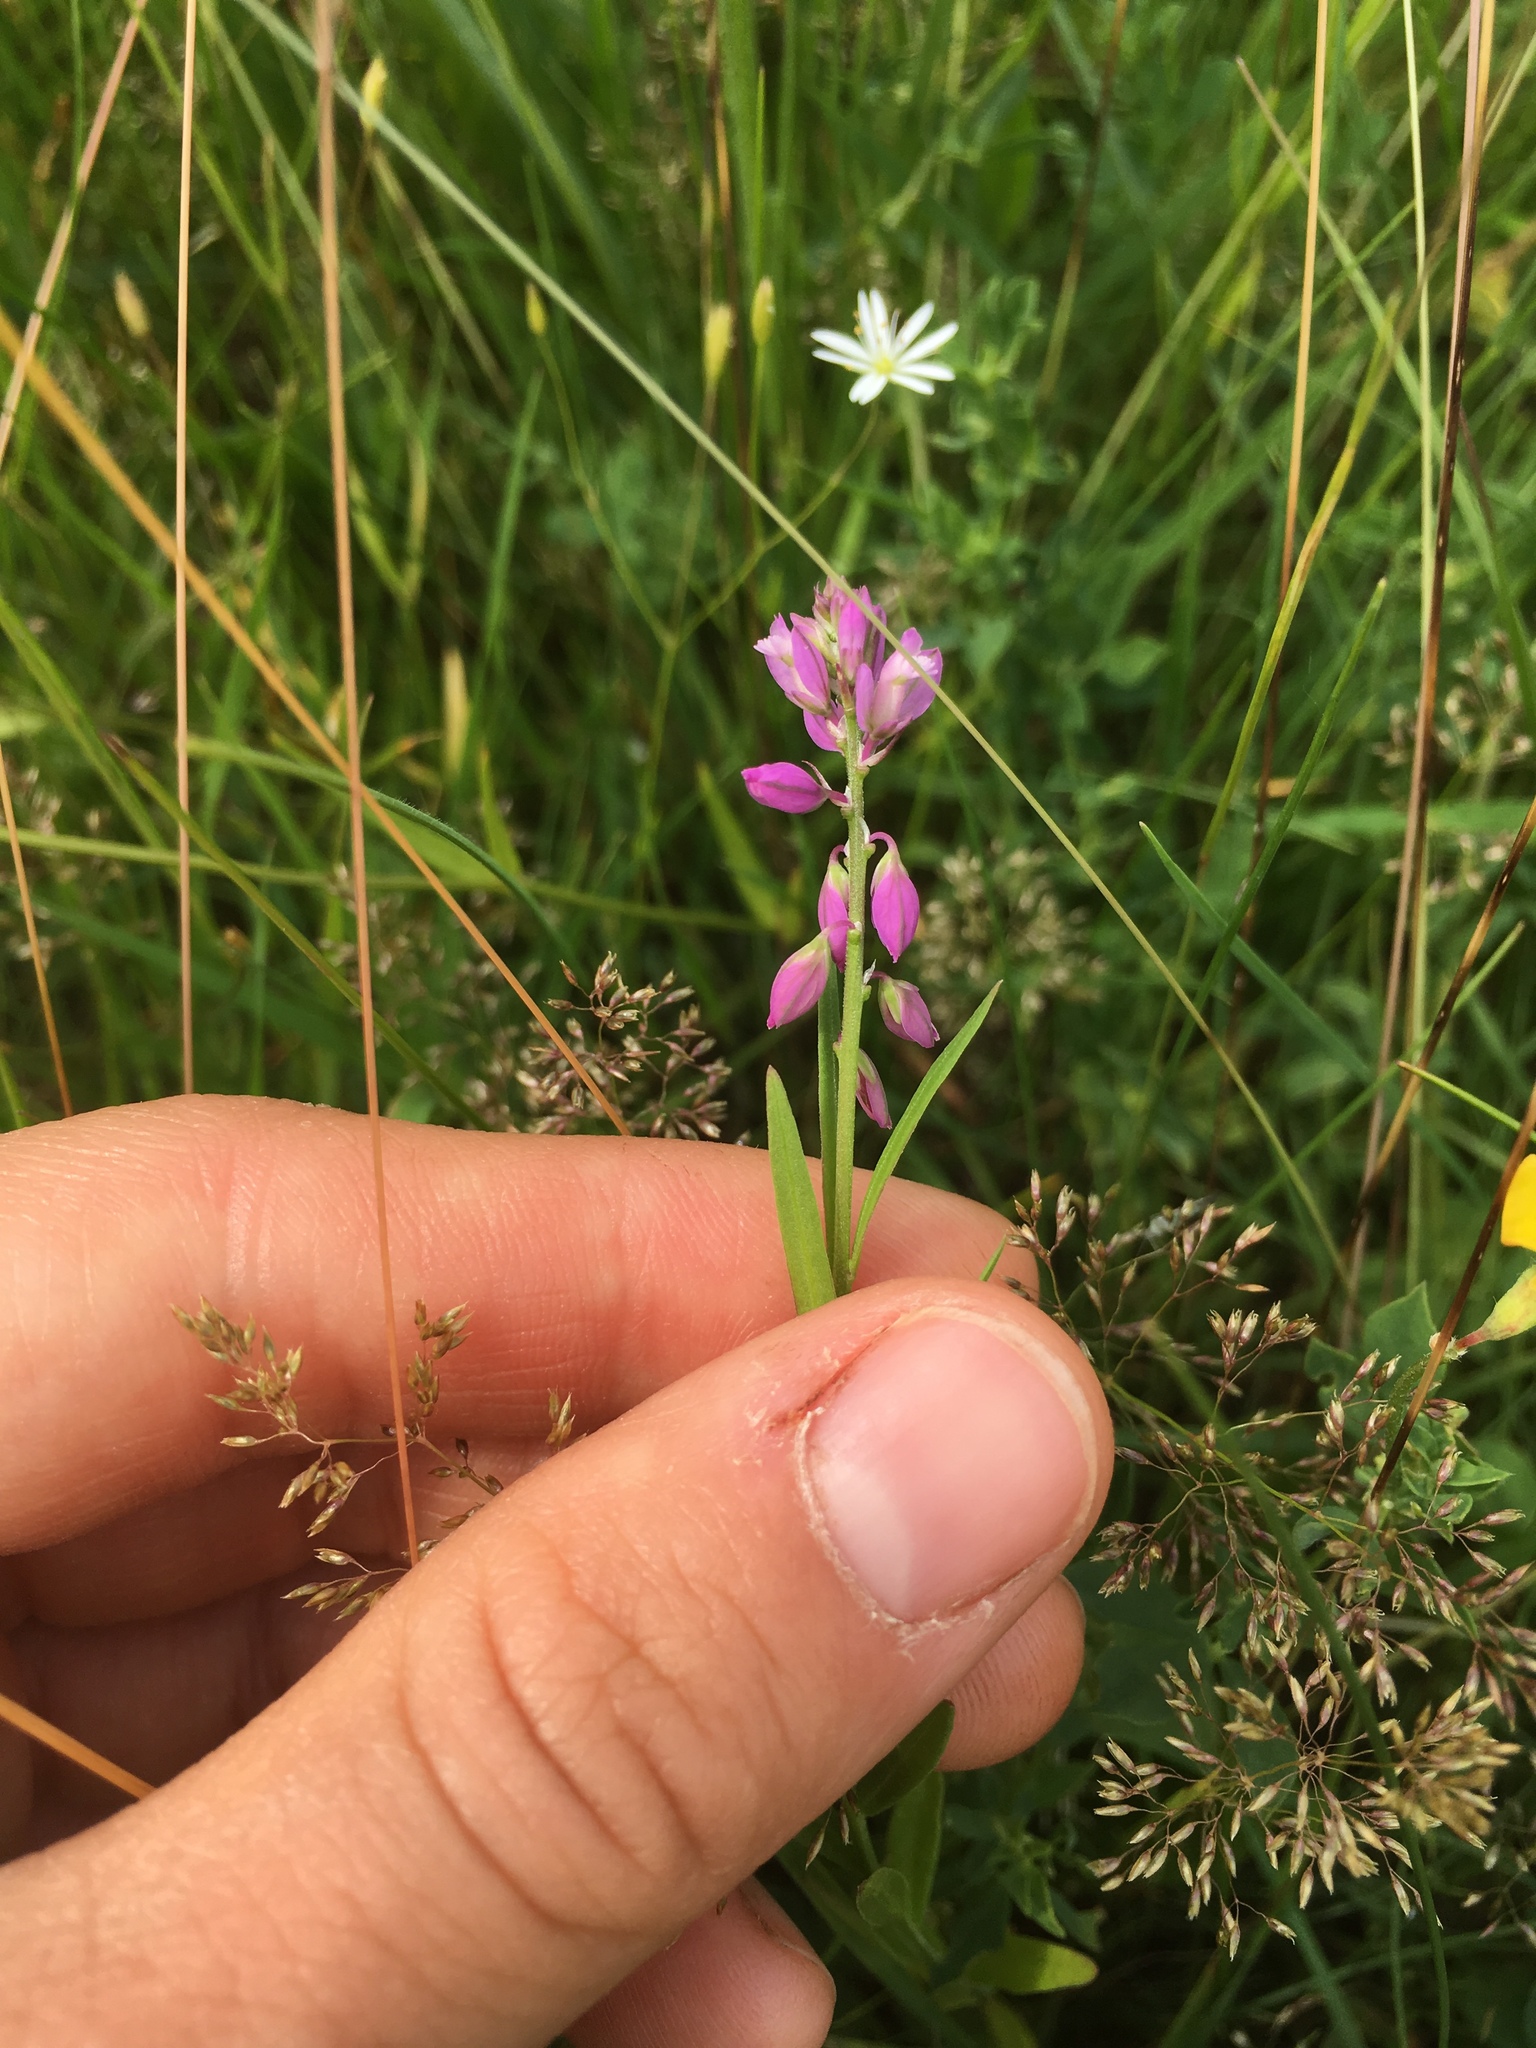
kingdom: Plantae
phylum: Tracheophyta
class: Magnoliopsida
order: Fabales
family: Polygalaceae
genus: Polygala
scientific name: Polygala comosa
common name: Tufted milkwort
